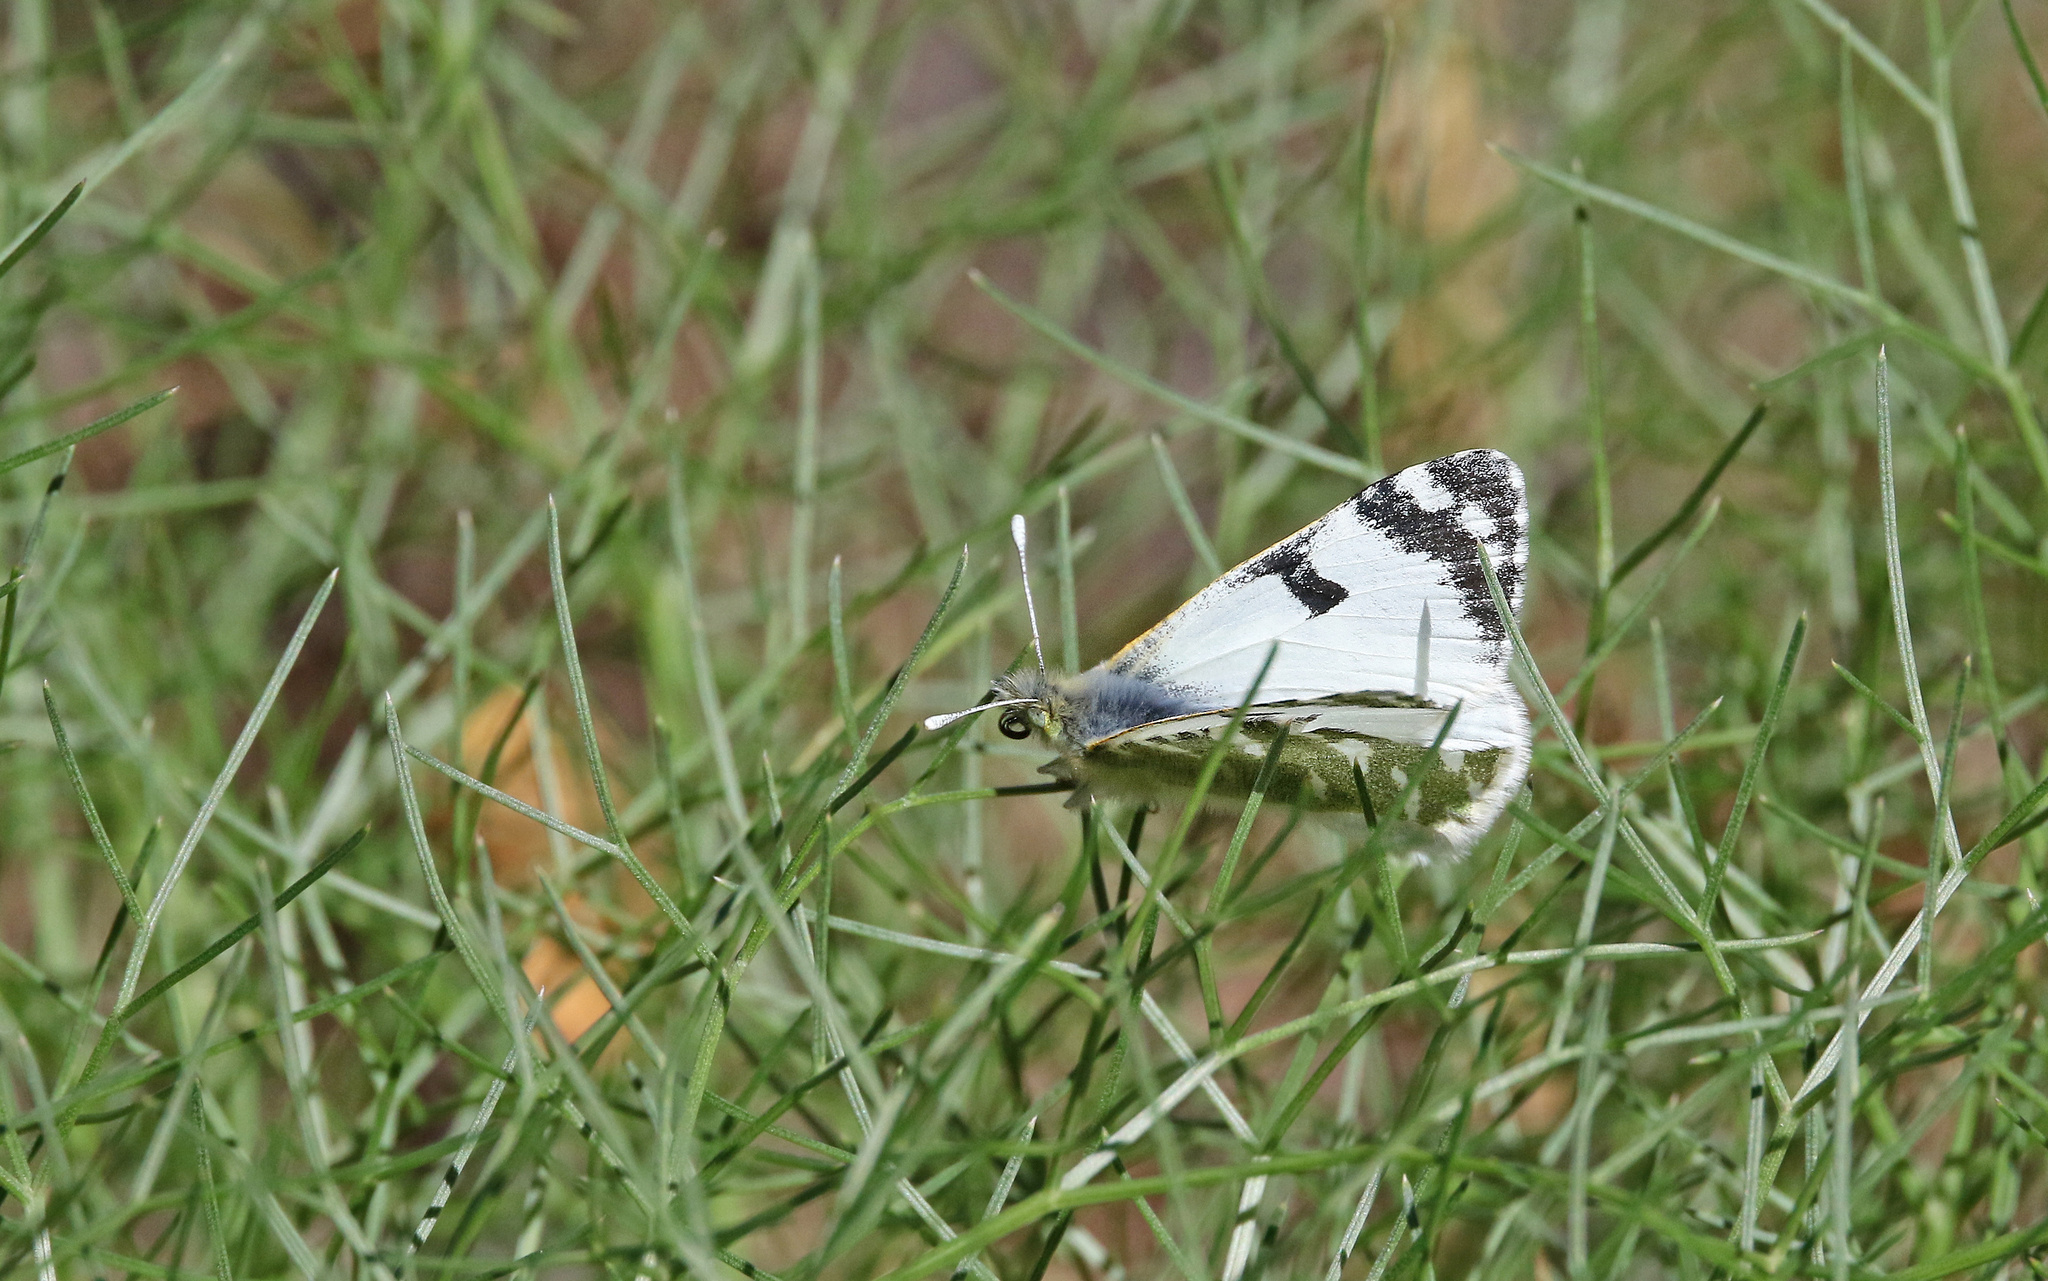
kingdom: Animalia
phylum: Arthropoda
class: Insecta
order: Lepidoptera
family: Pieridae
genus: Euchloe
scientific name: Euchloe grancanariensis
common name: Gran canaria green-striped white
